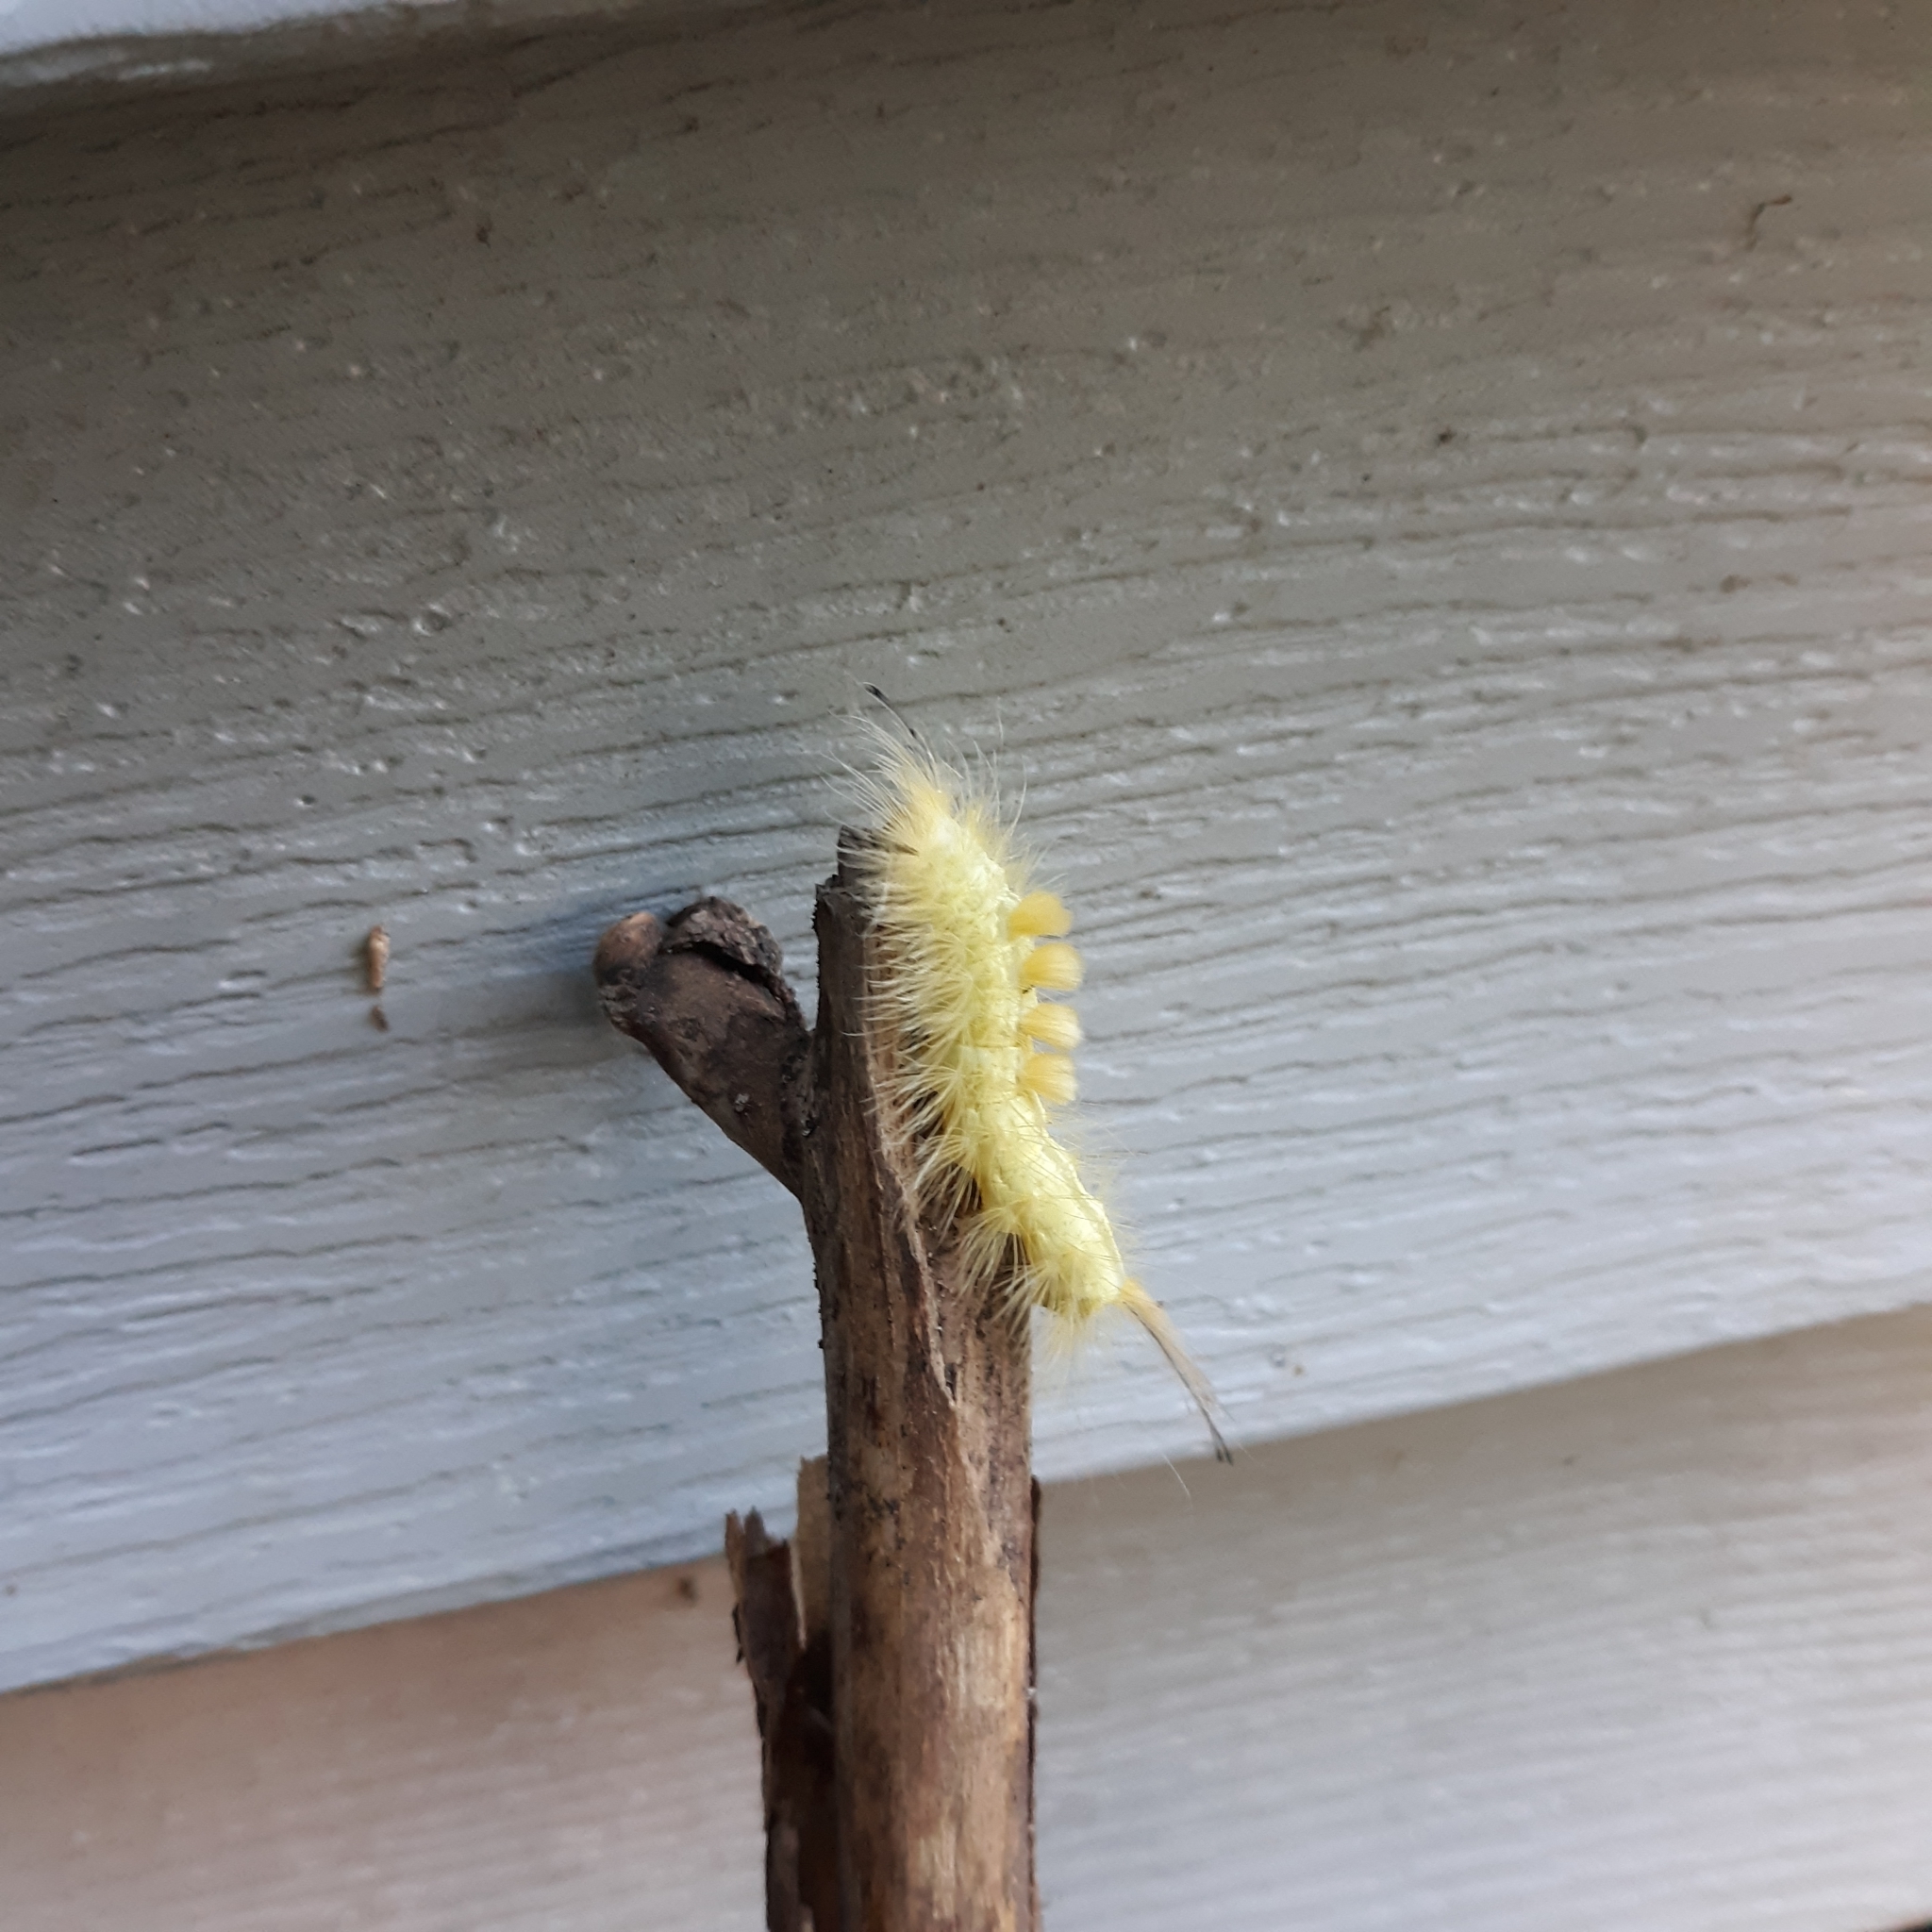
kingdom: Animalia
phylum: Arthropoda
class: Insecta
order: Lepidoptera
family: Erebidae
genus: Orgyia
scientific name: Orgyia definita
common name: Definite tussock moth
